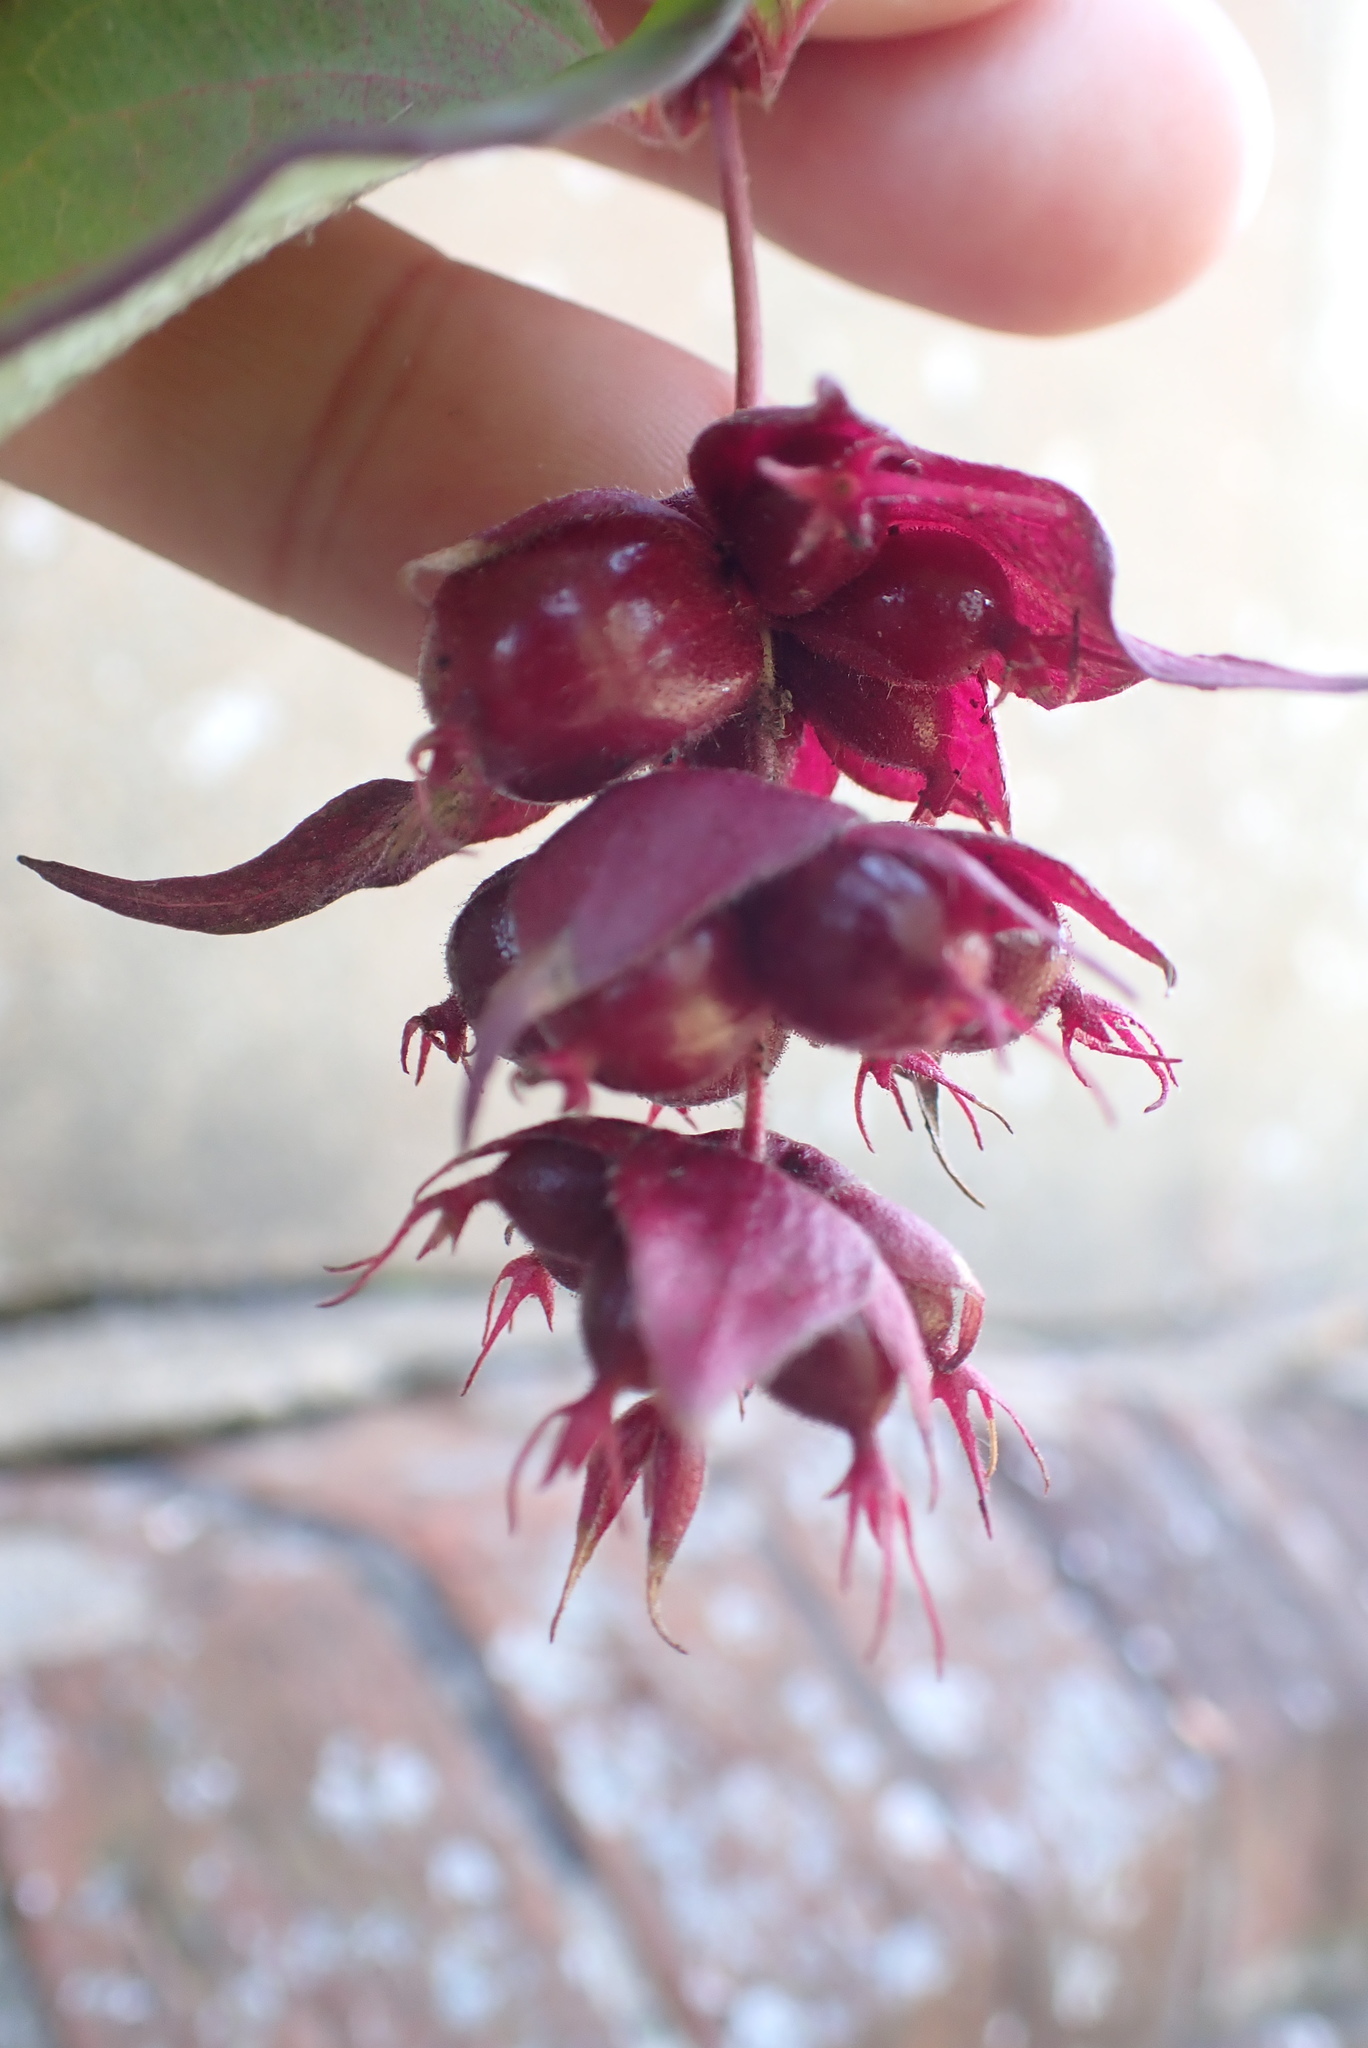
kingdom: Plantae
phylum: Tracheophyta
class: Magnoliopsida
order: Dipsacales
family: Caprifoliaceae
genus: Leycesteria
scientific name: Leycesteria formosa
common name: Himalayan honeysuckle
